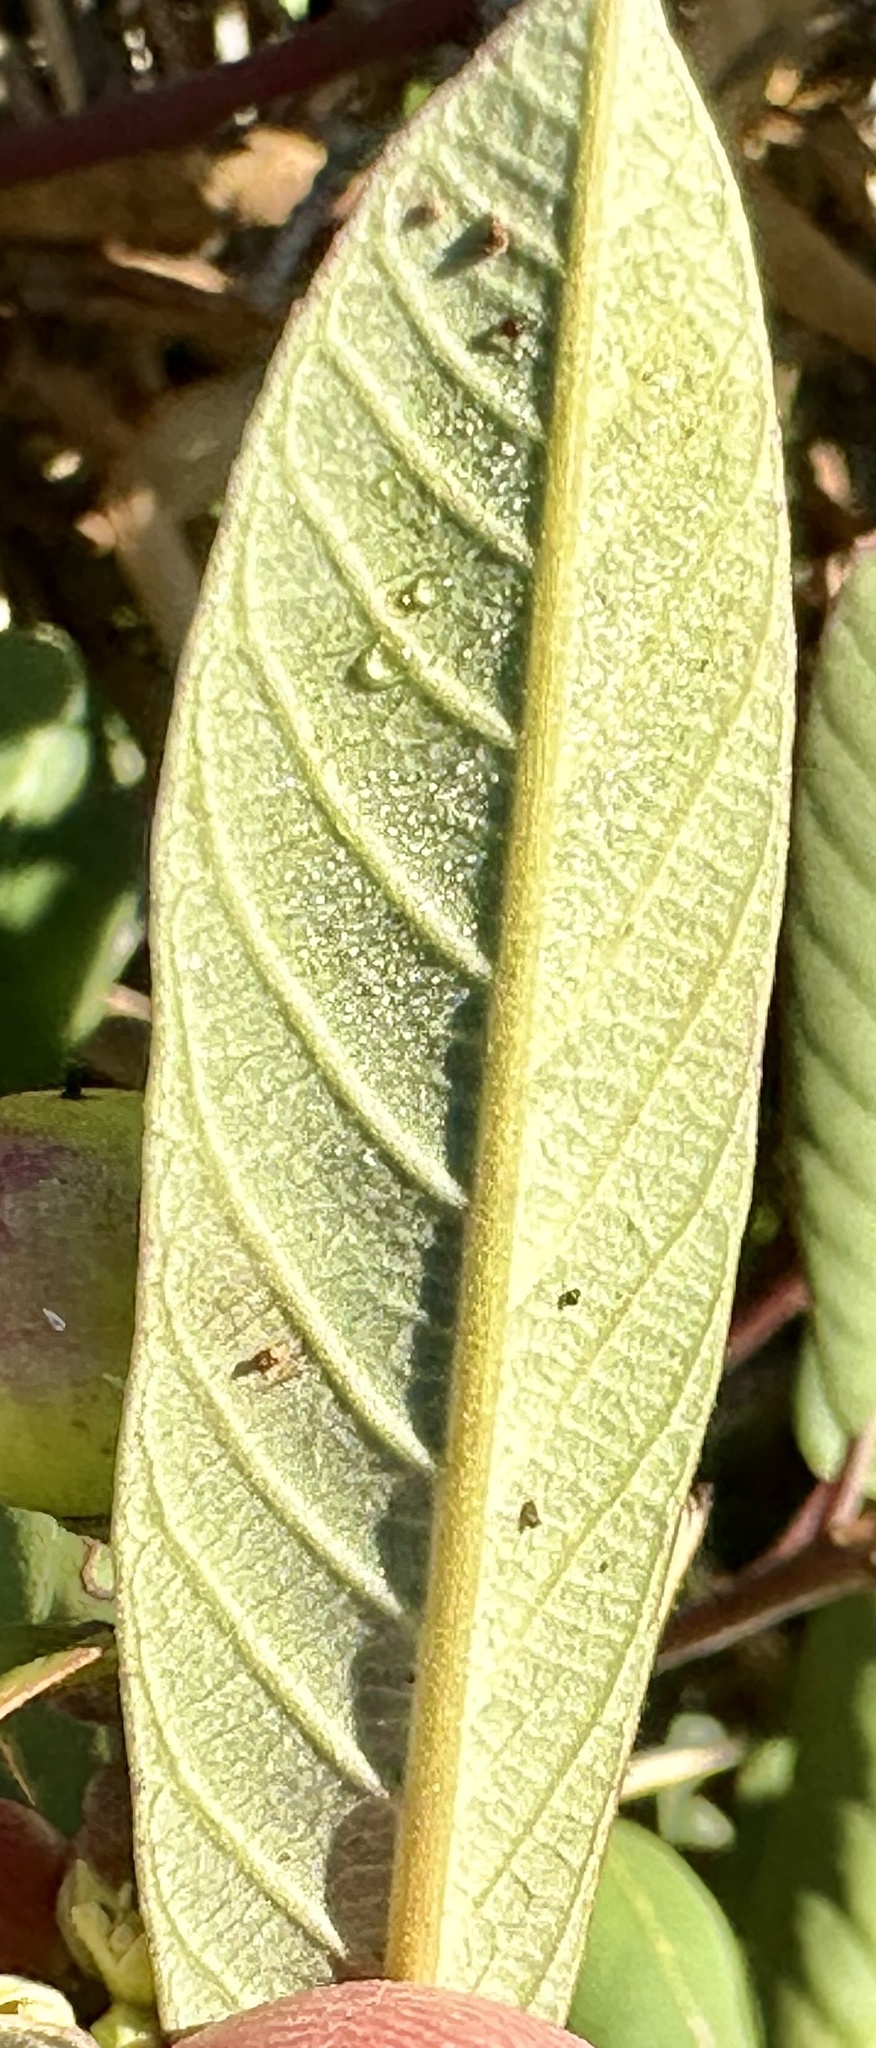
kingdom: Plantae
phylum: Tracheophyta
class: Magnoliopsida
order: Rosales
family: Rhamnaceae
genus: Frangula
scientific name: Frangula californica
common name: California buckthorn
